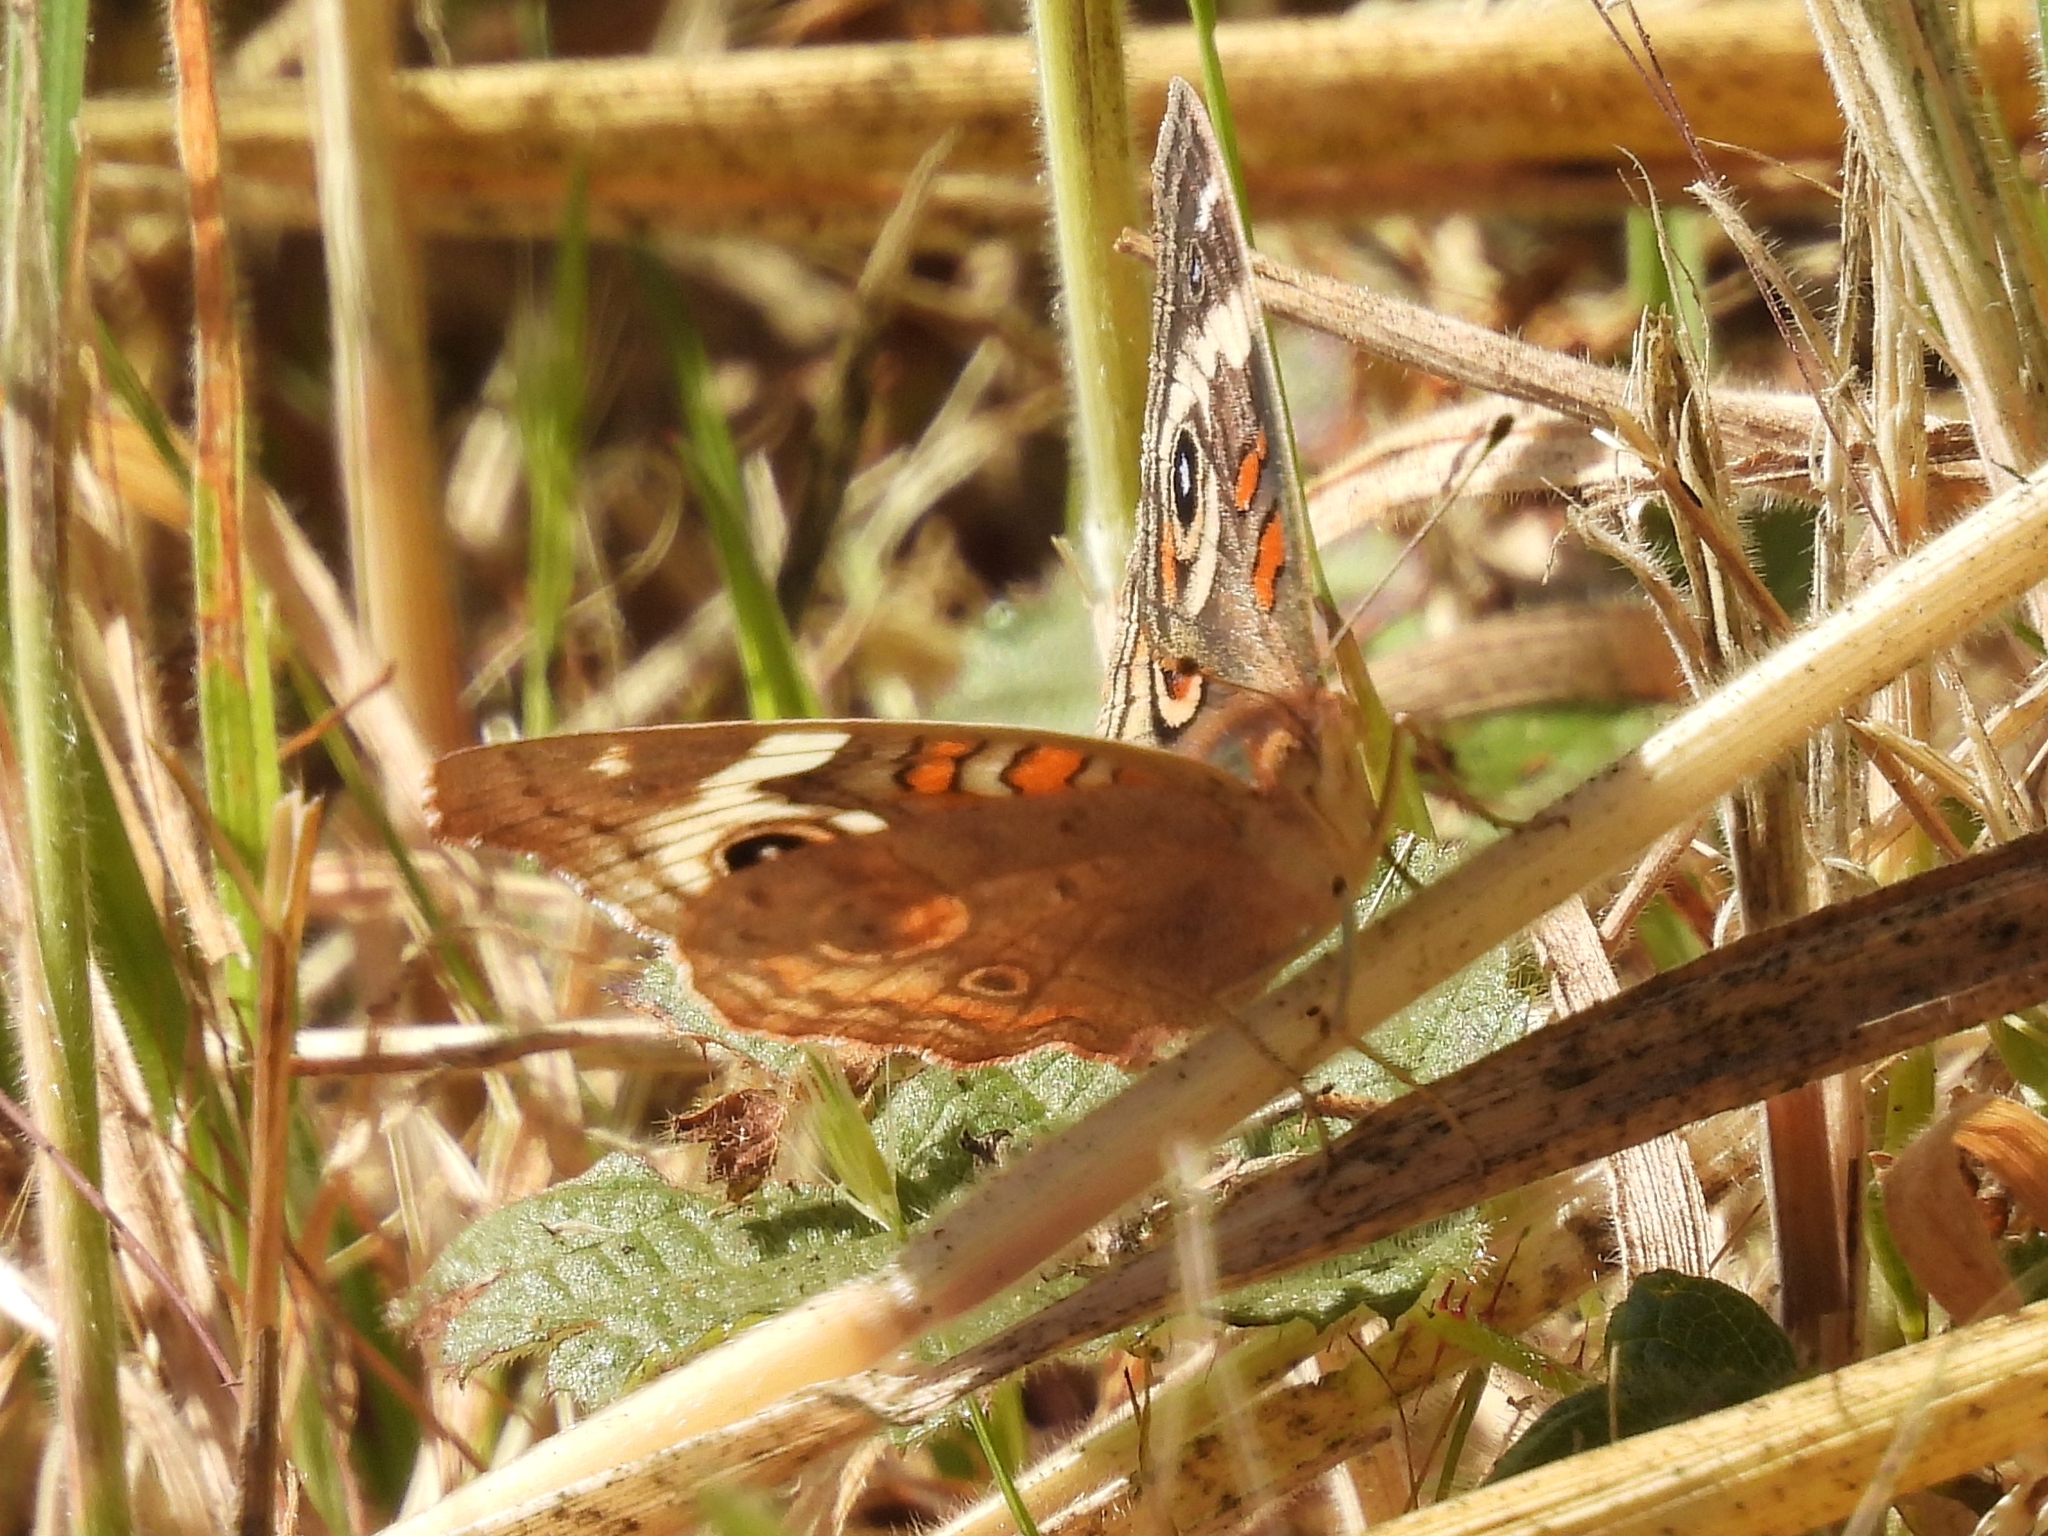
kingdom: Animalia
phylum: Arthropoda
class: Insecta
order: Lepidoptera
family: Nymphalidae
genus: Junonia
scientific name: Junonia grisea
